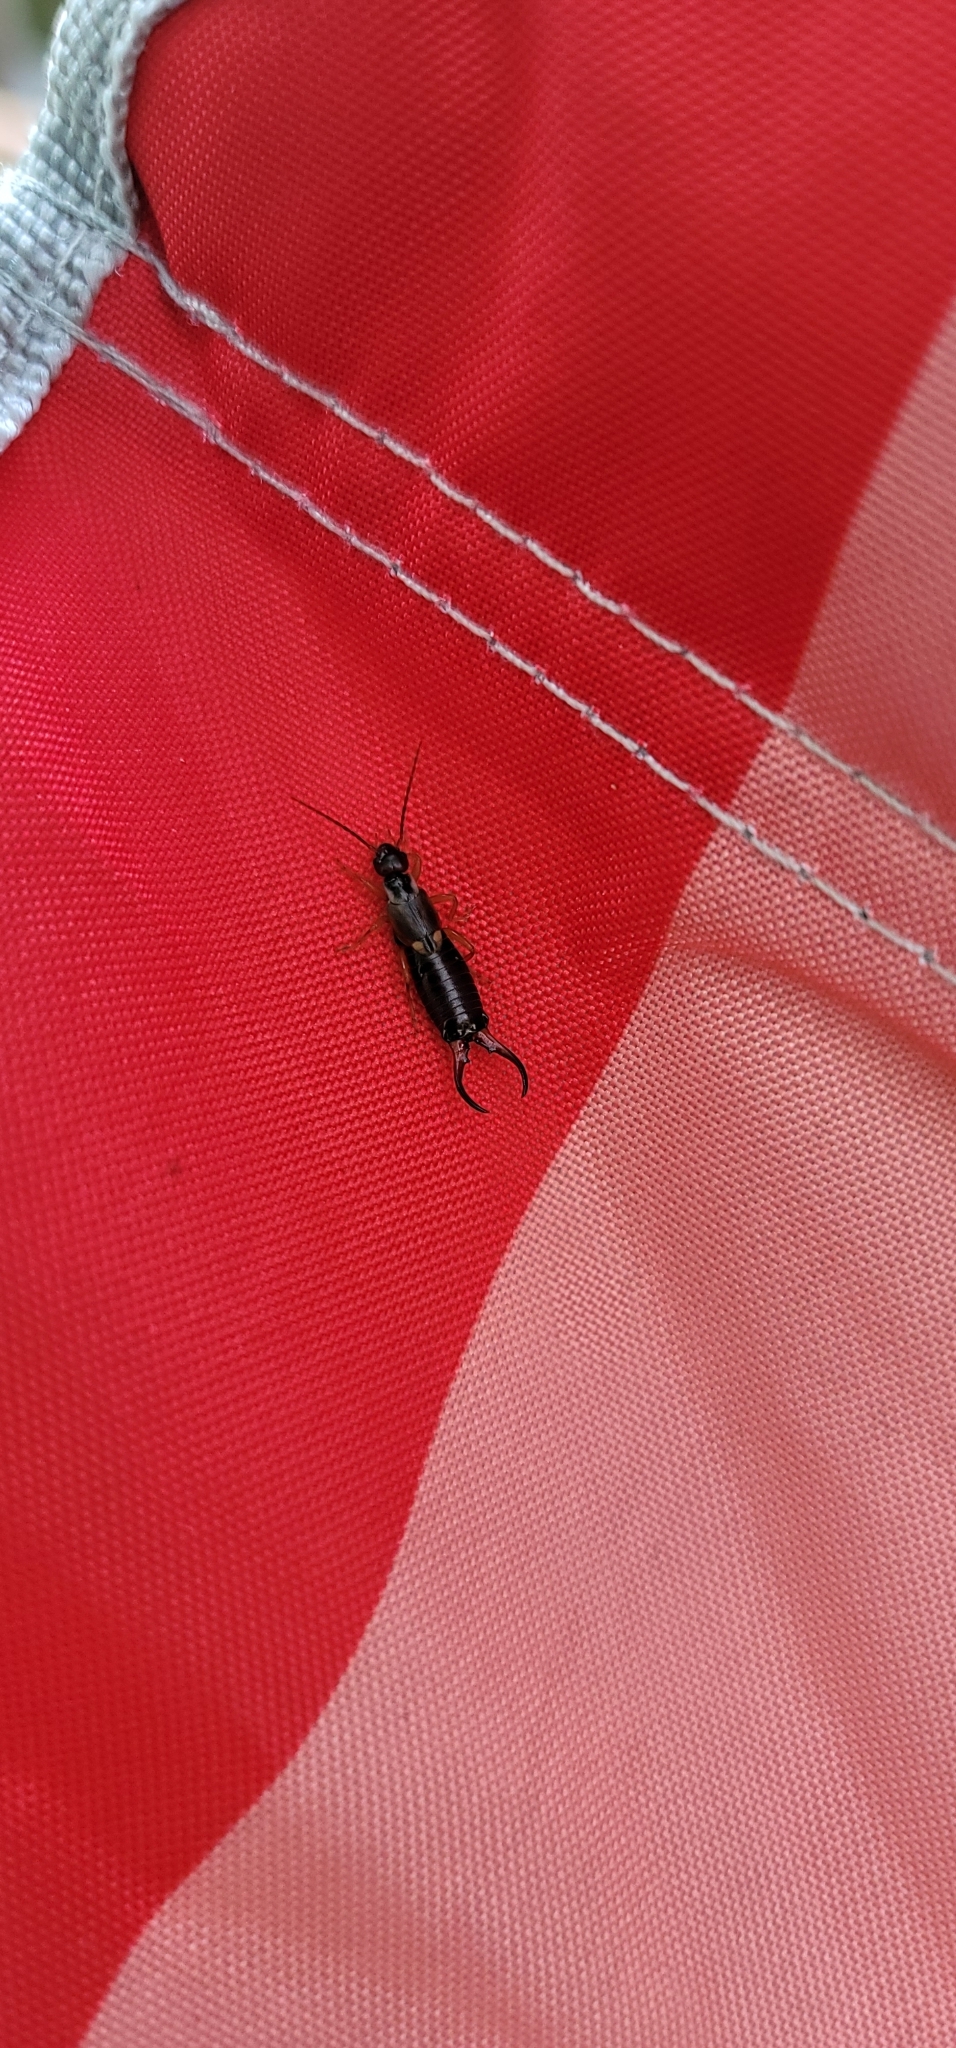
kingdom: Animalia
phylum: Arthropoda
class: Insecta
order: Dermaptera
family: Forficulidae
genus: Forficula
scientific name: Forficula
